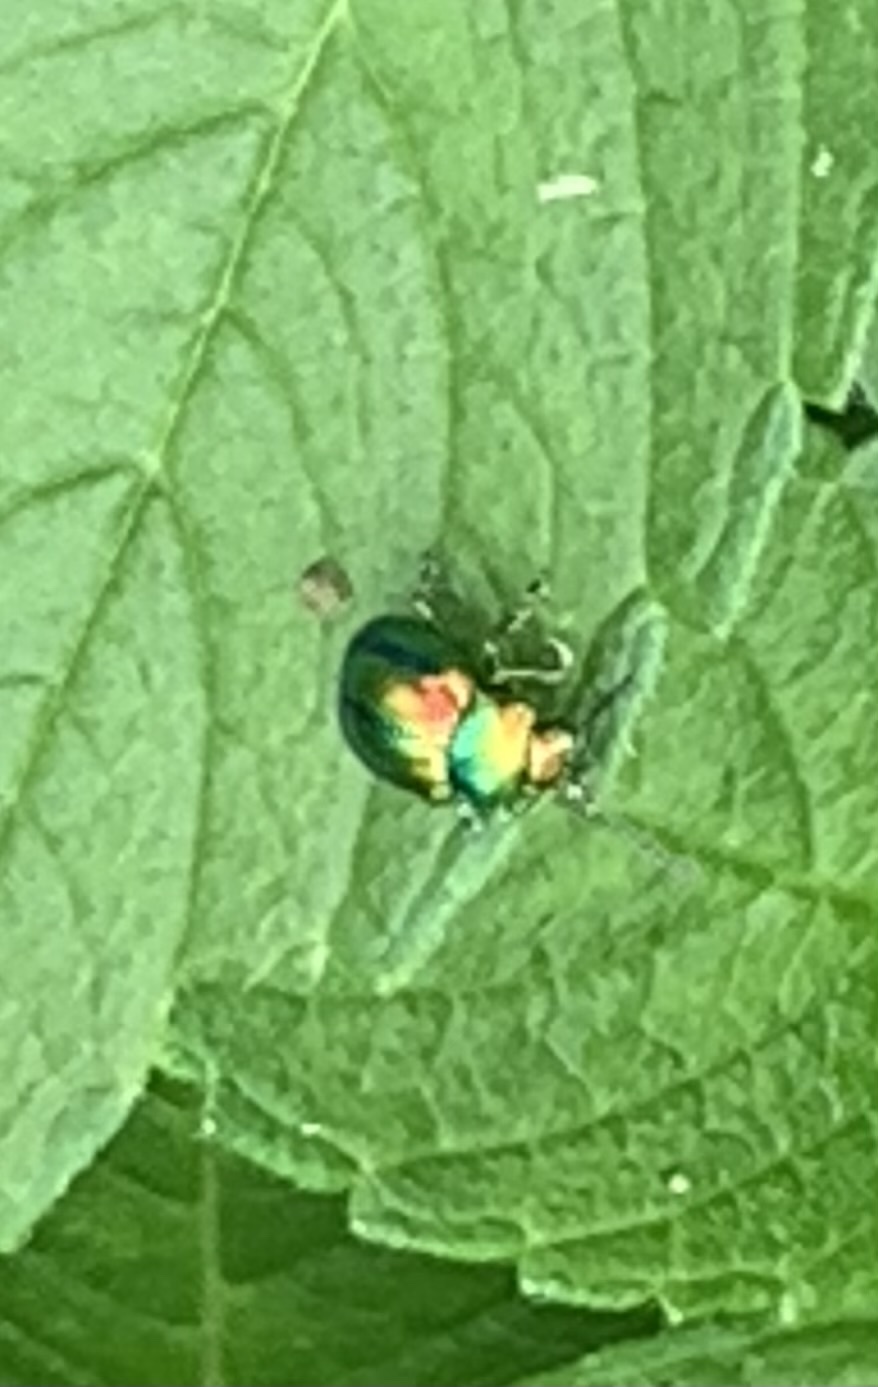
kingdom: Animalia
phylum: Arthropoda
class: Insecta
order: Coleoptera
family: Chrysomelidae
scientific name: Chrysomelidae
